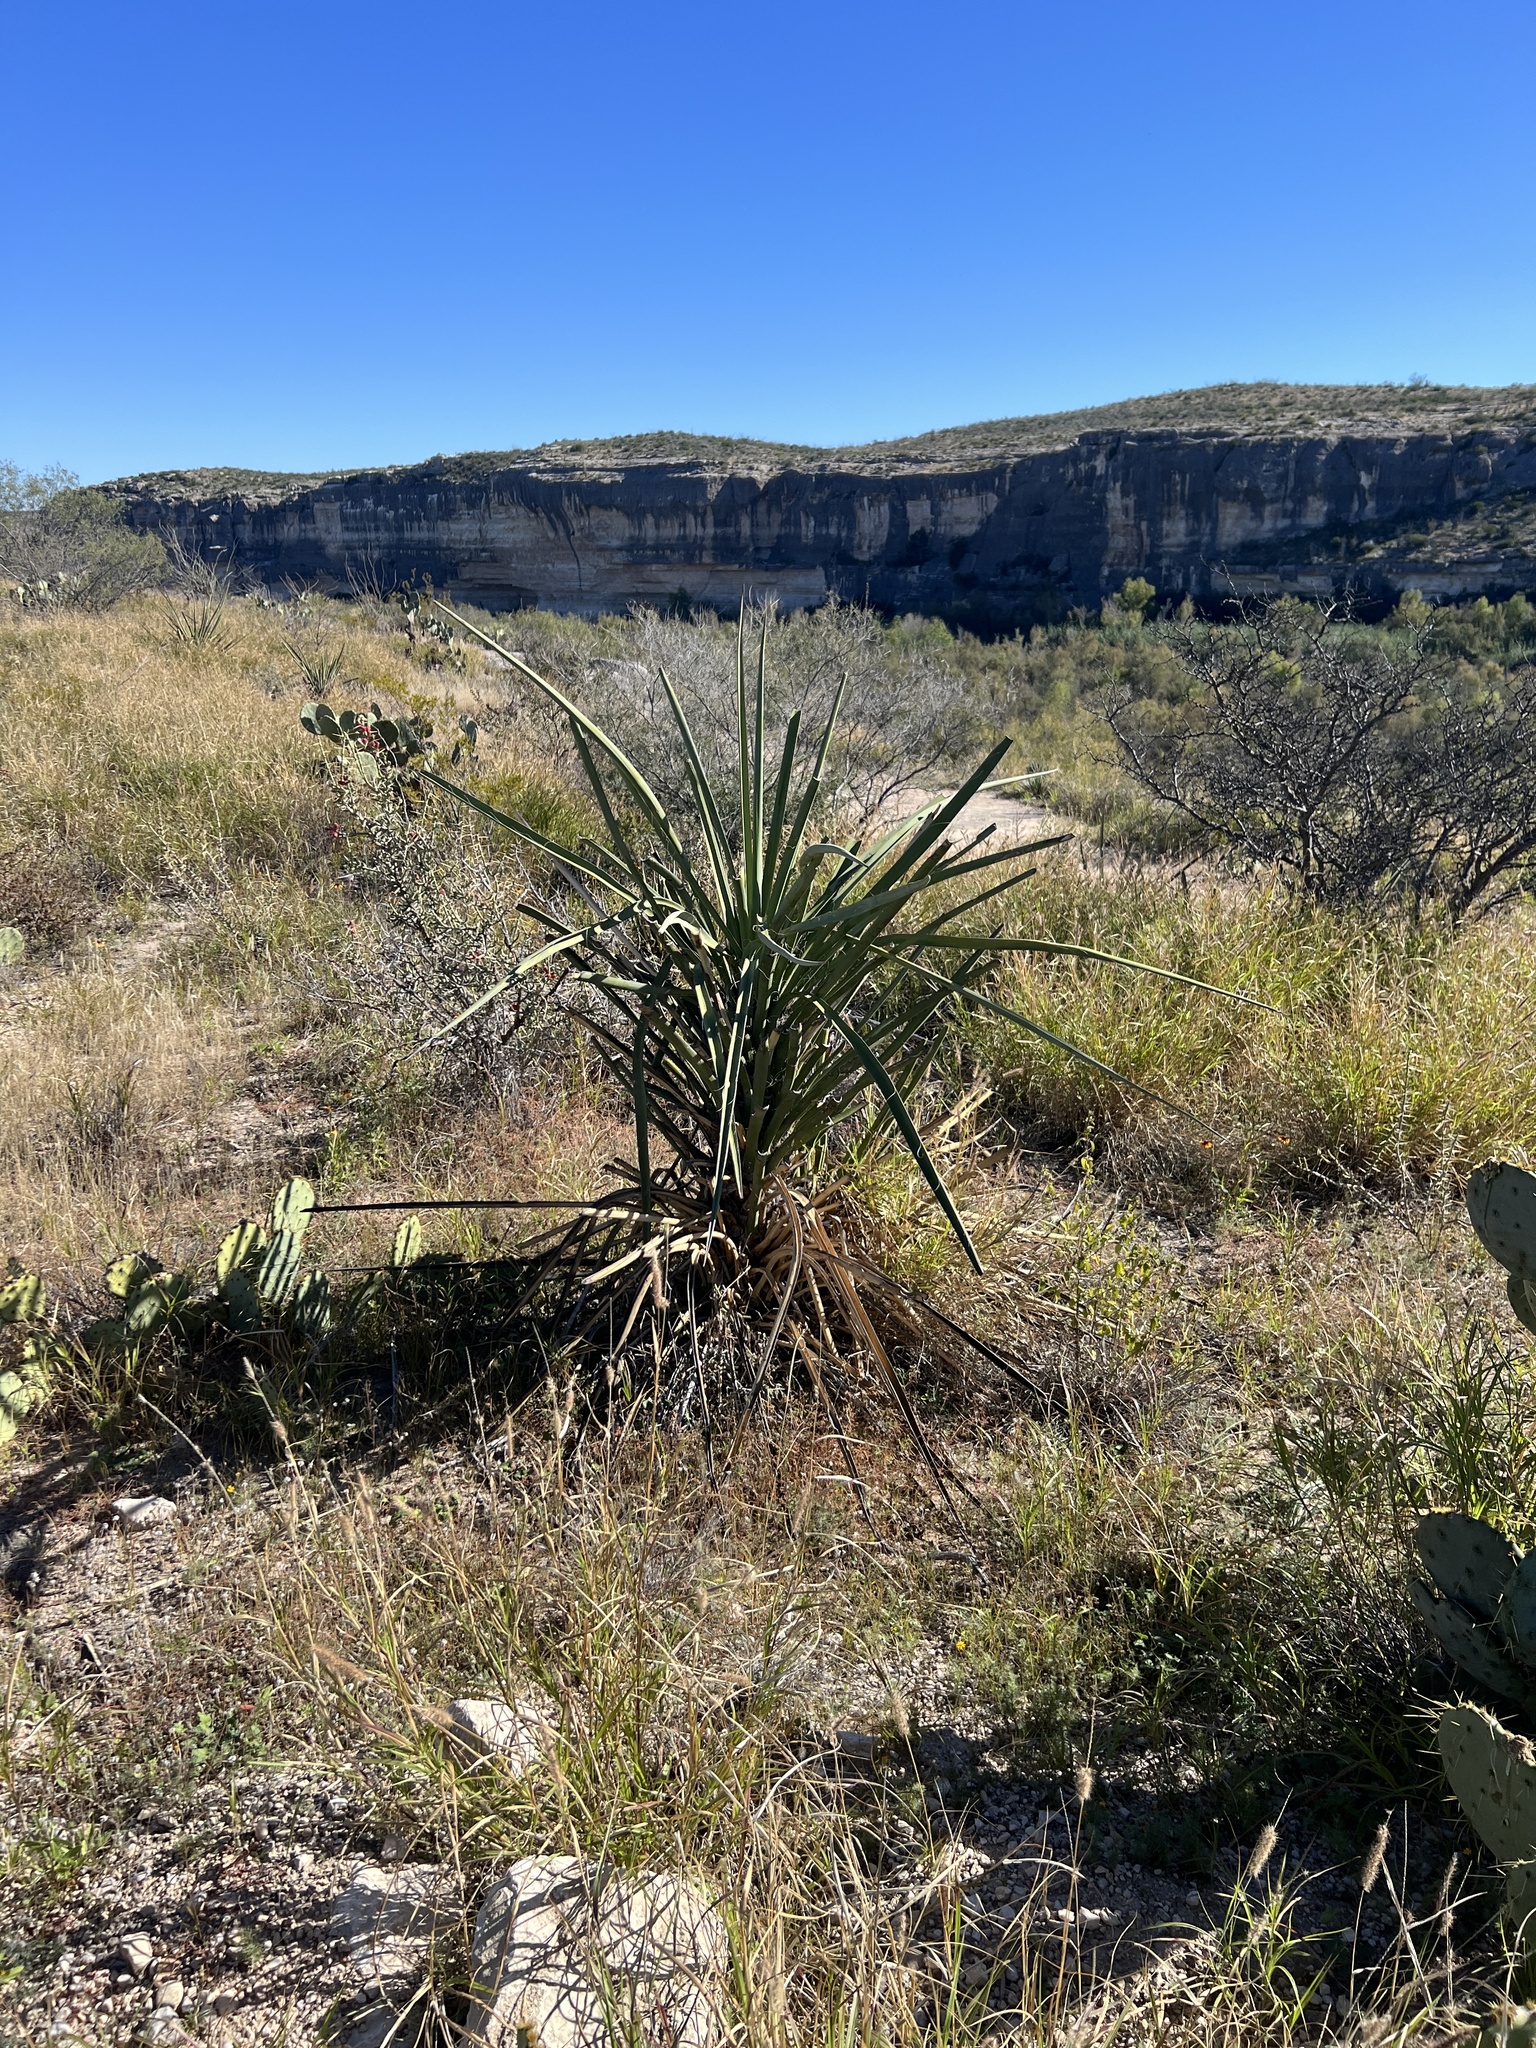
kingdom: Plantae
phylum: Tracheophyta
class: Liliopsida
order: Asparagales
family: Asparagaceae
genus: Yucca
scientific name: Yucca treculiana
